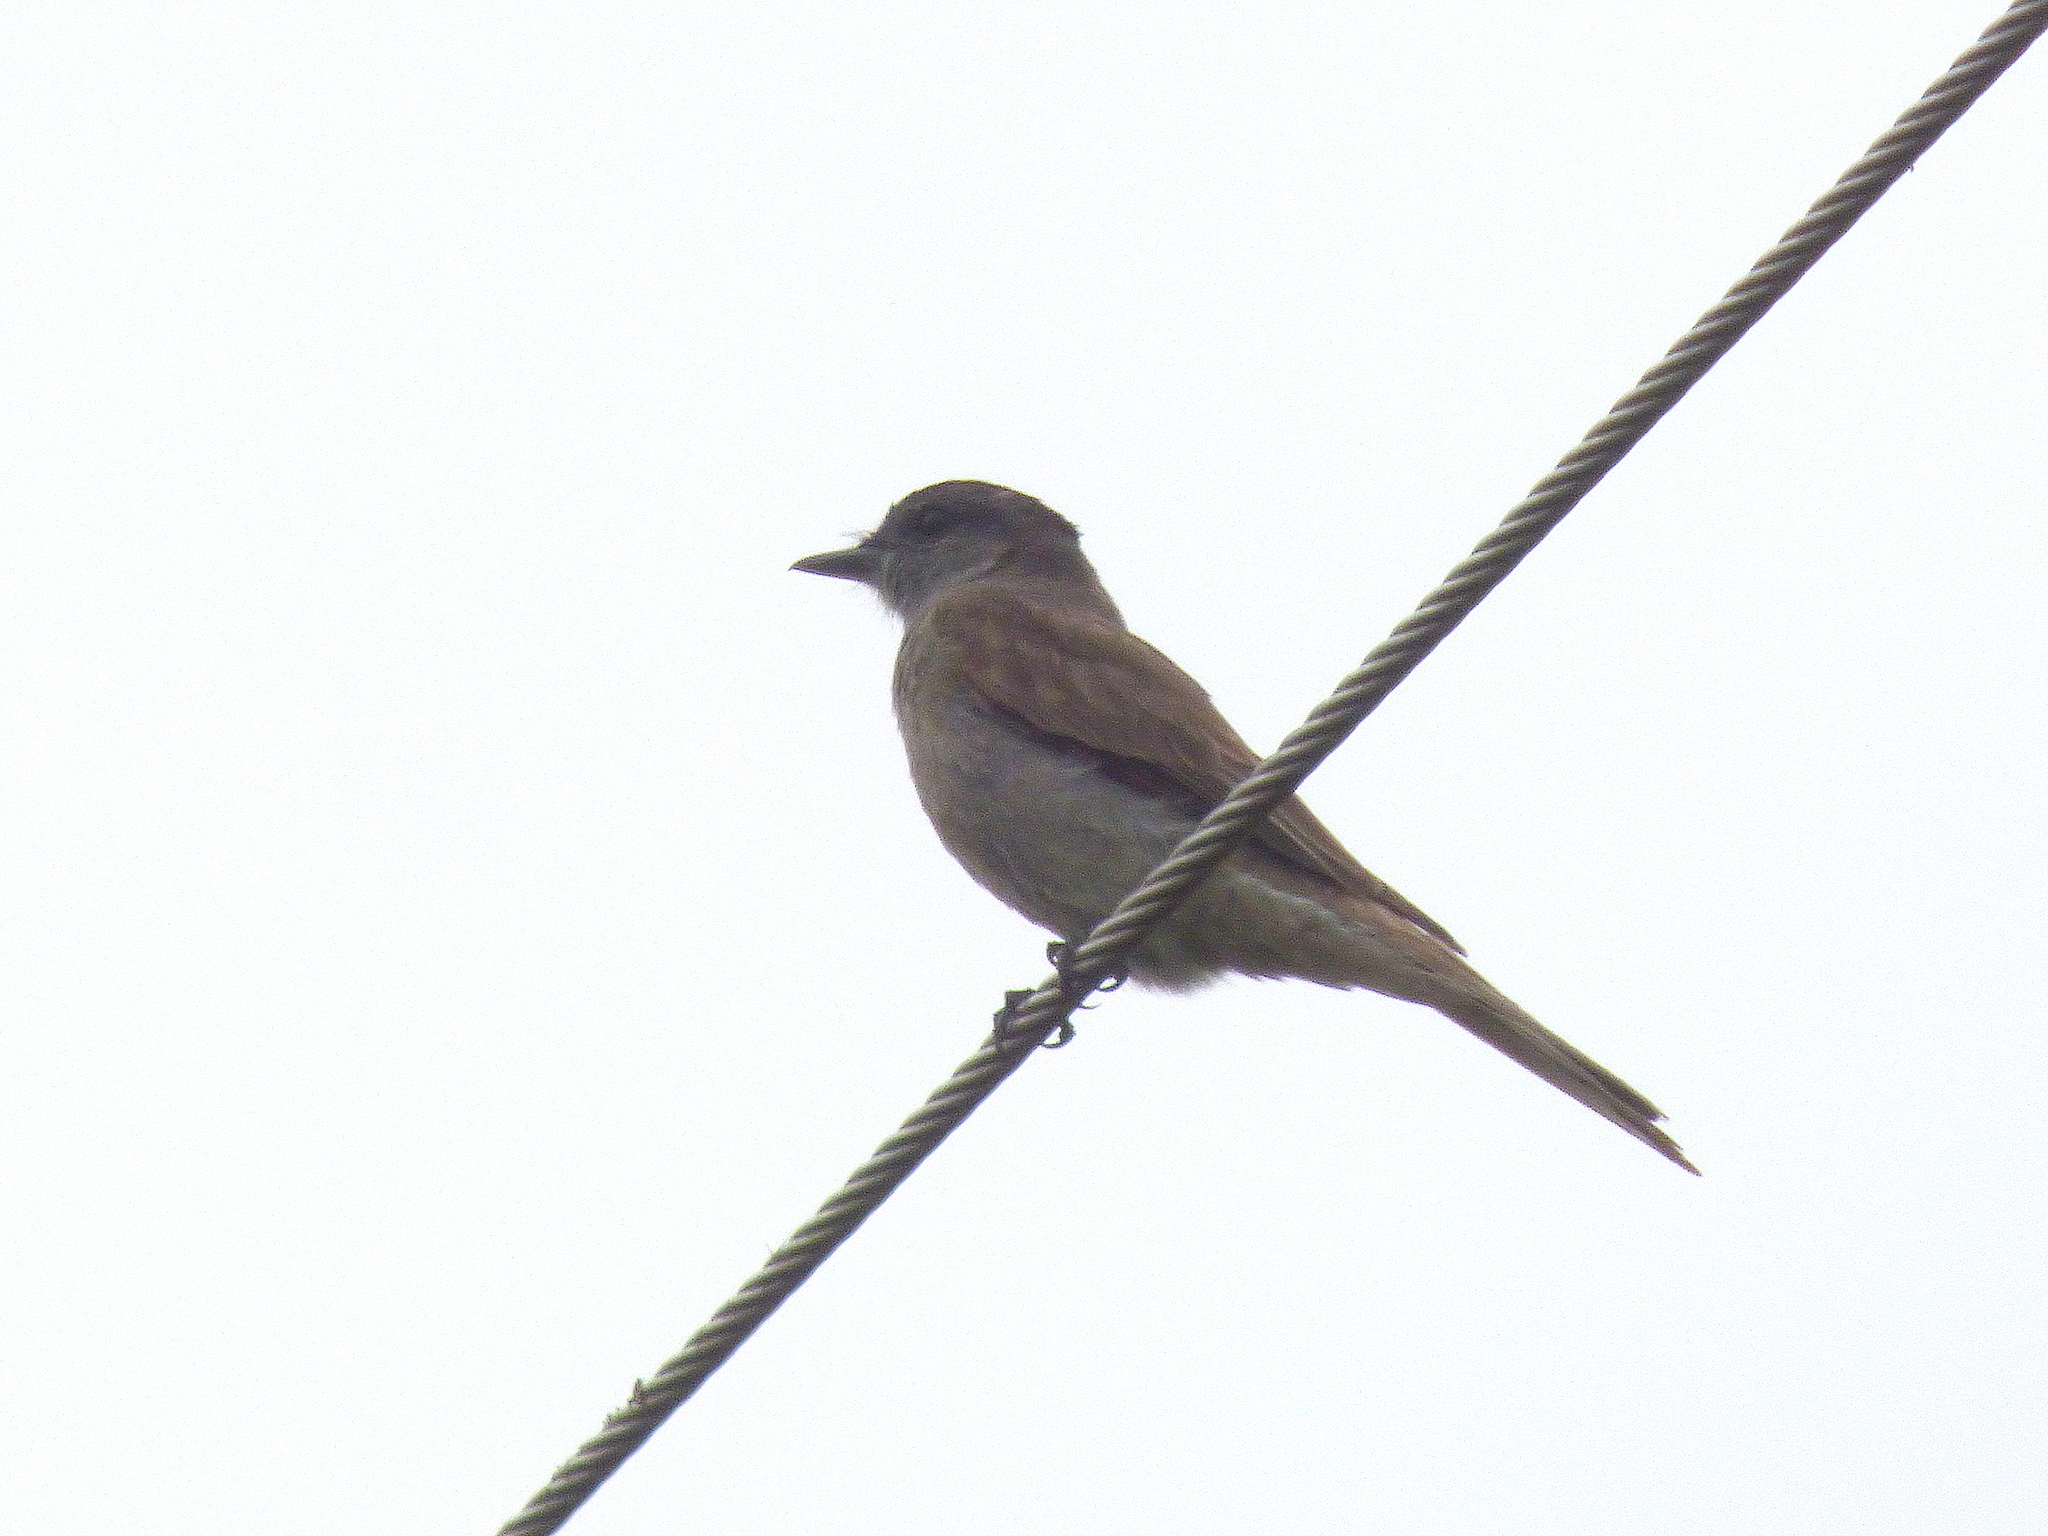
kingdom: Animalia
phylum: Chordata
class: Aves
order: Passeriformes
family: Tyrannidae
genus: Empidonomus
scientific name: Empidonomus aurantioatrocristatus
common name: Crowned slaty flycatcher
